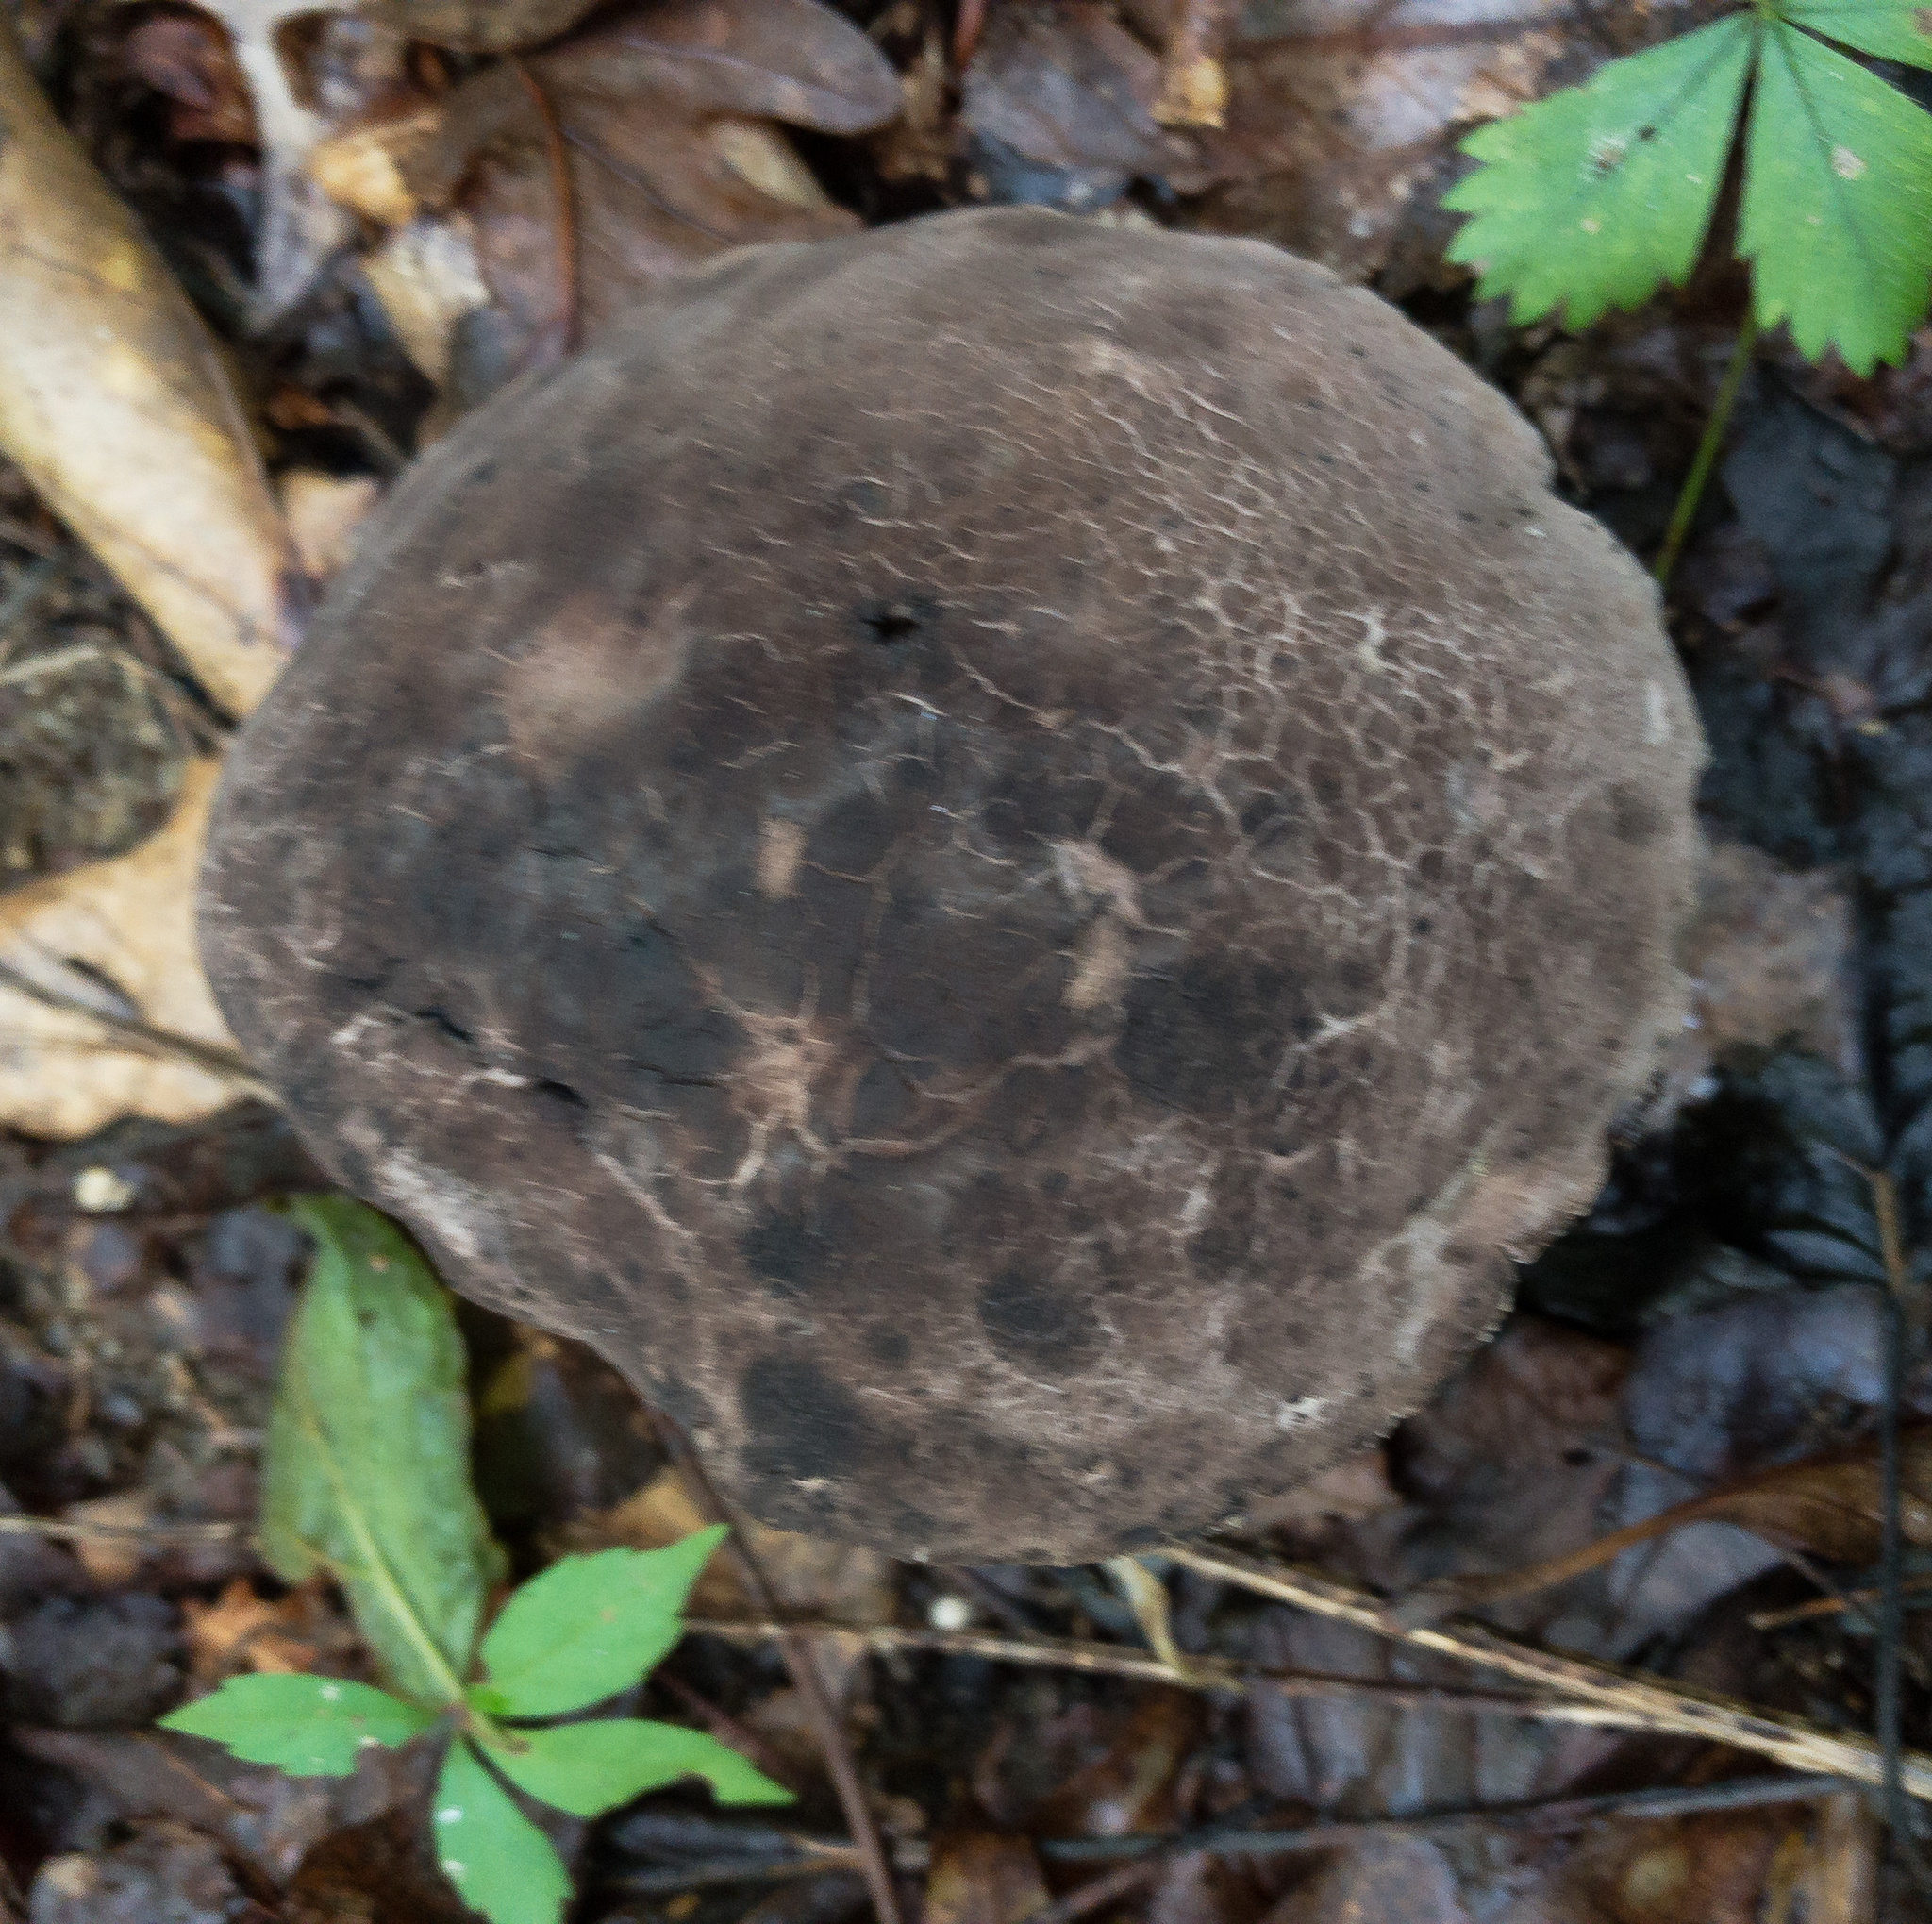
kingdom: Fungi
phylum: Basidiomycota
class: Agaricomycetes
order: Boletales
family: Boletaceae
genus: Tylopilus
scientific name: Tylopilus alboater
